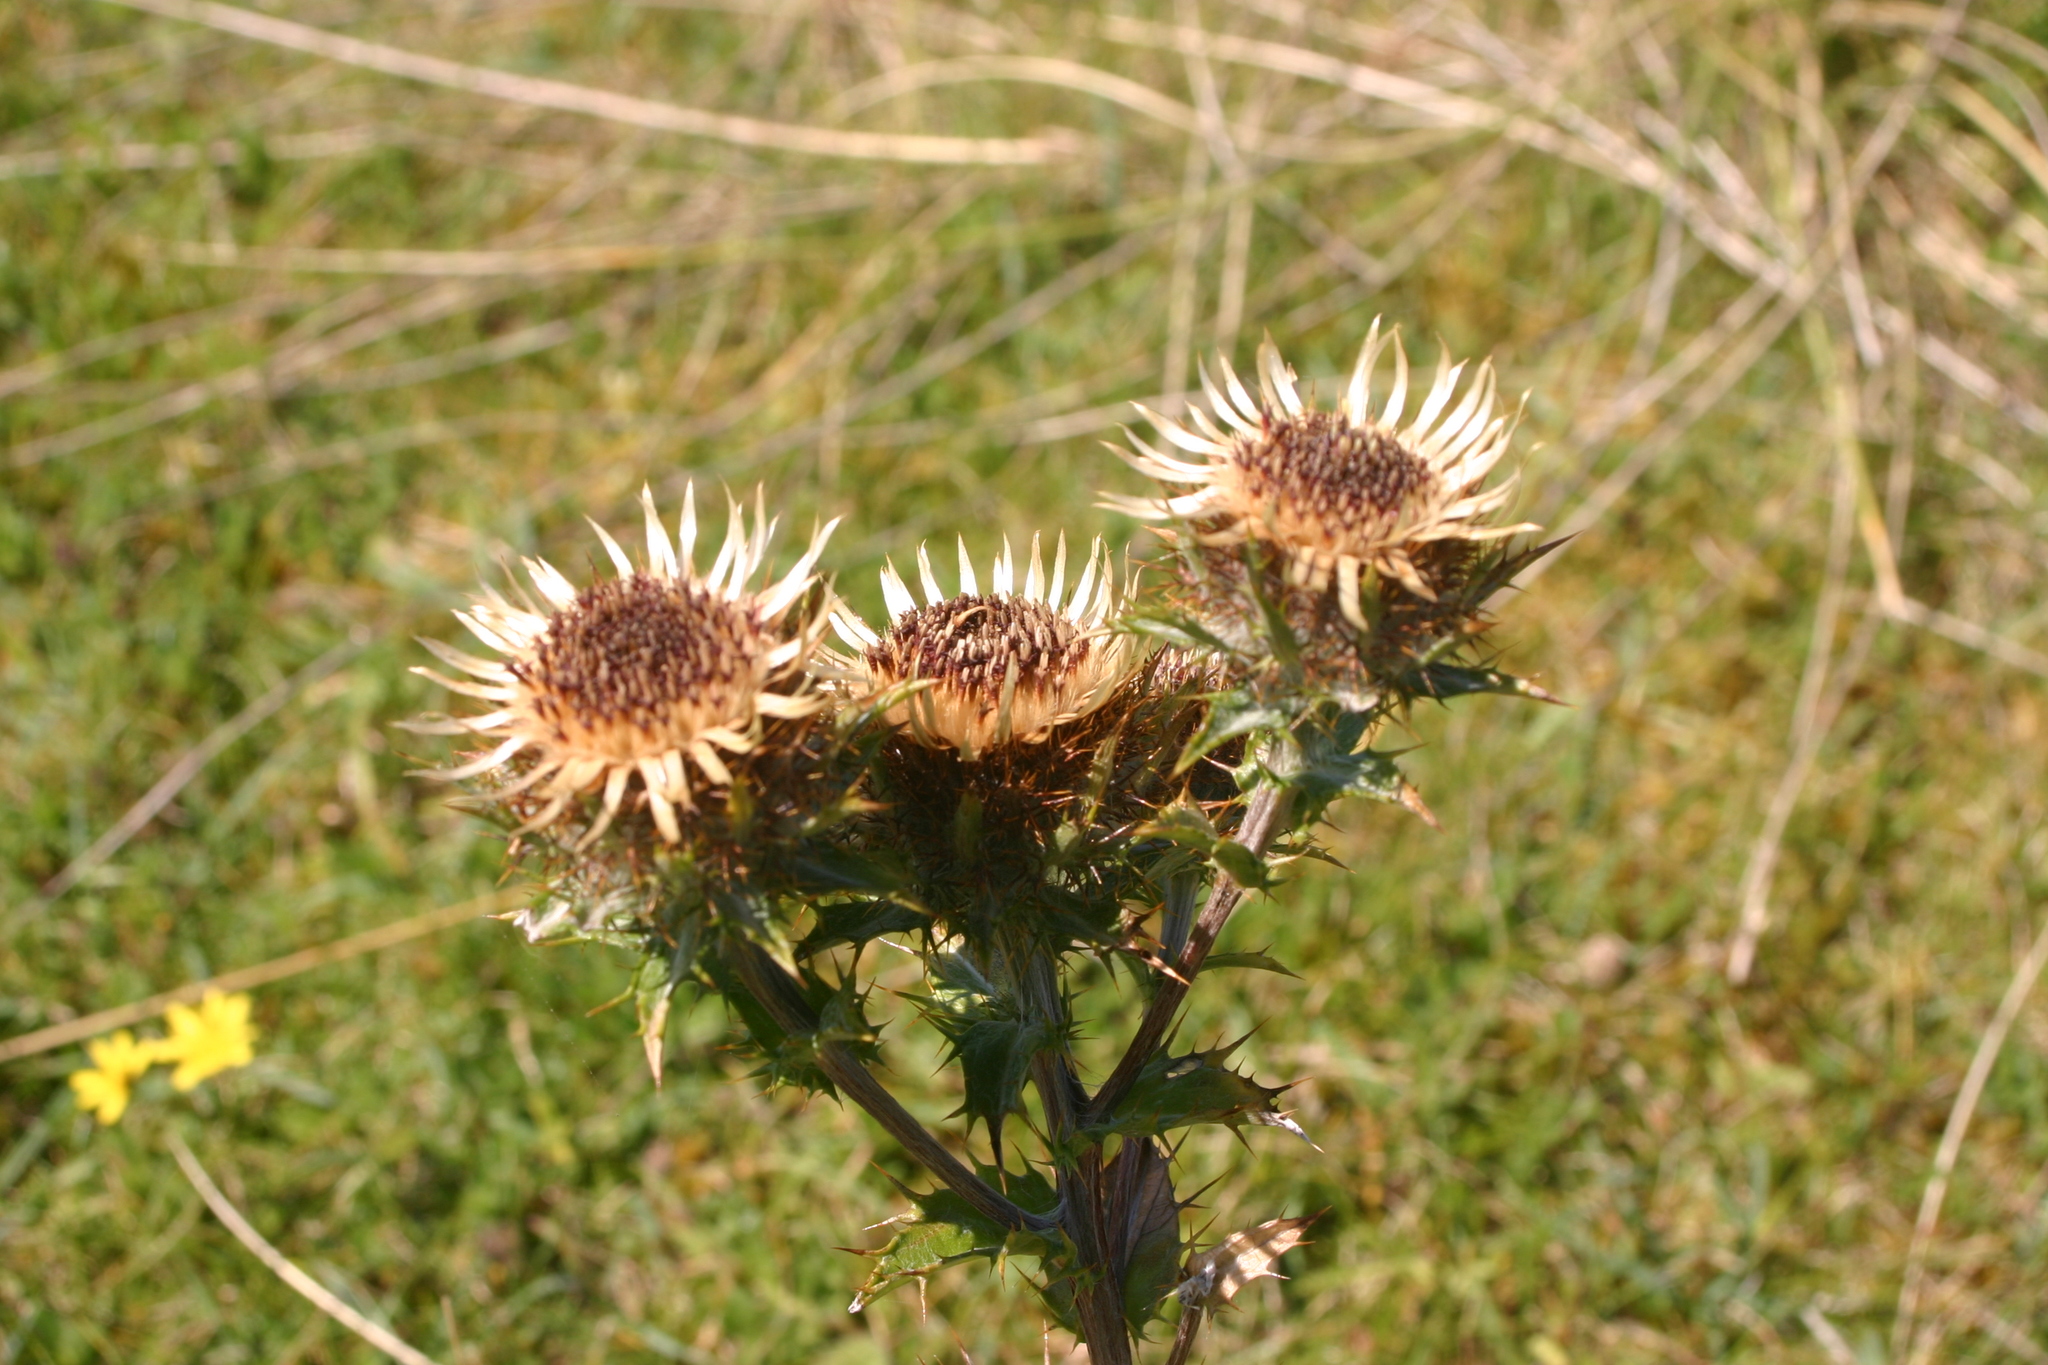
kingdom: Plantae
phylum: Tracheophyta
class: Magnoliopsida
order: Asterales
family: Asteraceae
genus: Carlina
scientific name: Carlina vulgaris
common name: Carline thistle
